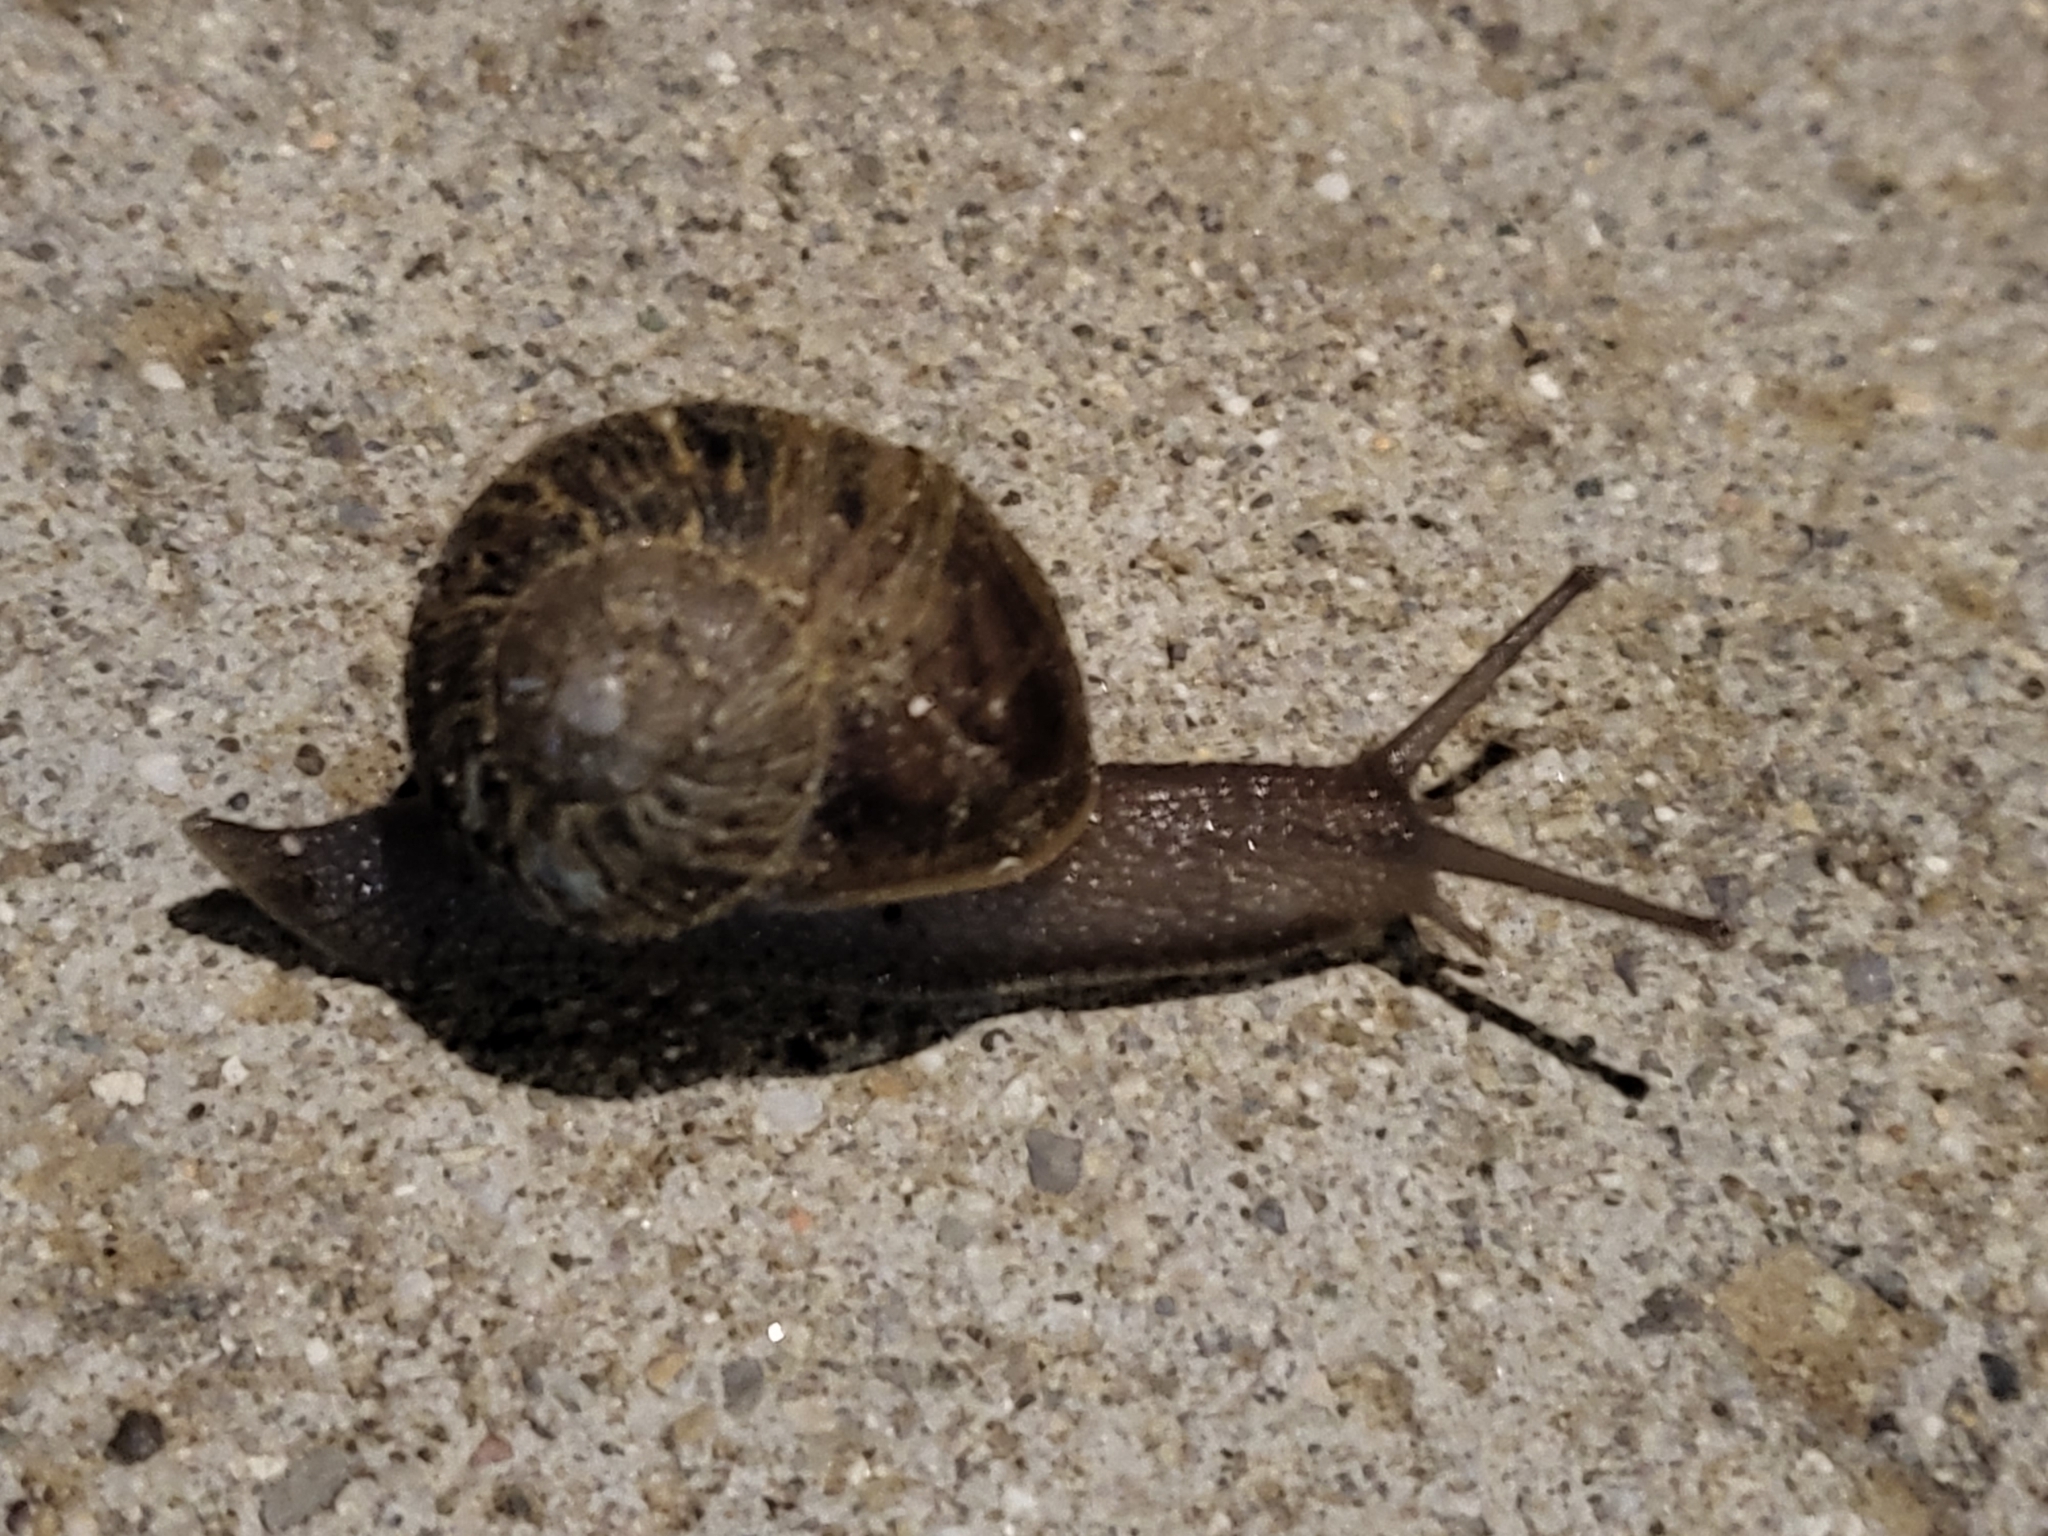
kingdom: Animalia
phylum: Mollusca
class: Gastropoda
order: Stylommatophora
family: Helicidae
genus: Cornu
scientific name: Cornu aspersum
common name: Brown garden snail
